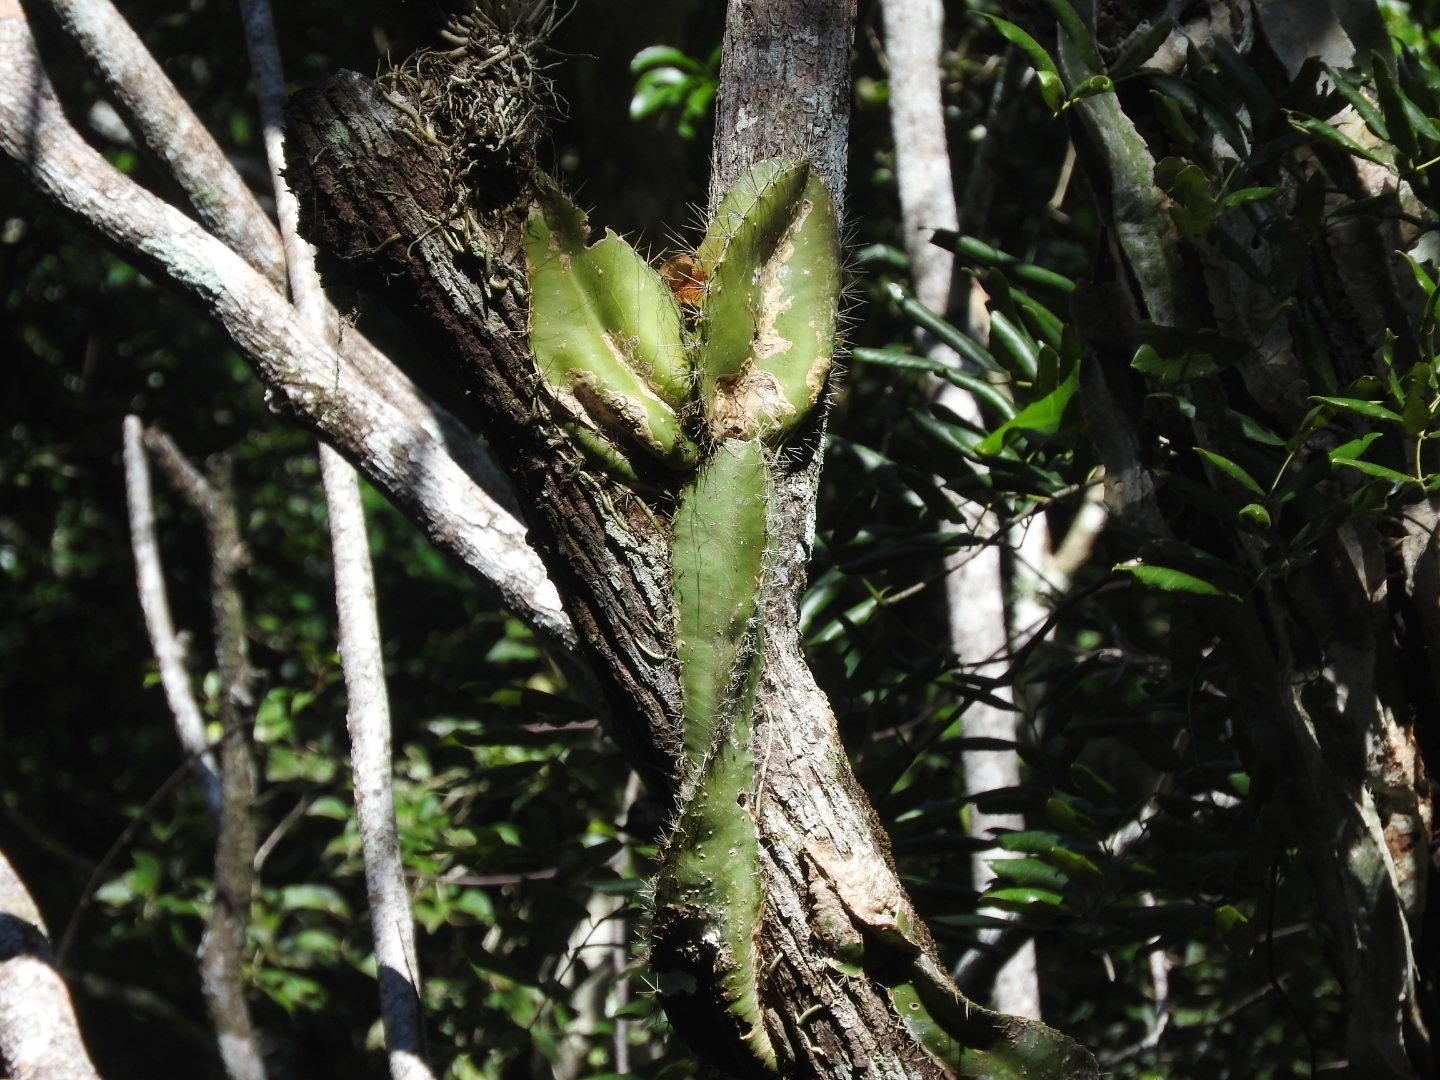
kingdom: Plantae
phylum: Tracheophyta
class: Magnoliopsida
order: Caryophyllales
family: Cactaceae
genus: Deamia
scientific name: Deamia testudo
